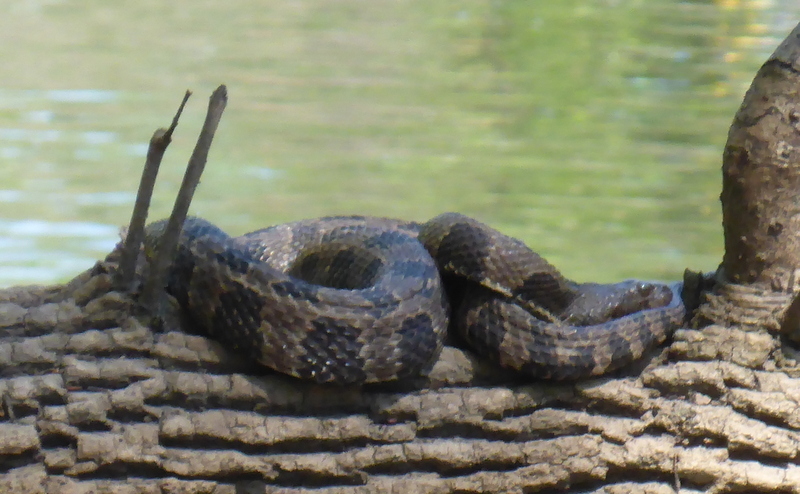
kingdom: Animalia
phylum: Chordata
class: Squamata
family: Colubridae
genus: Nerodia
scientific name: Nerodia taxispilota
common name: Brown water snake
